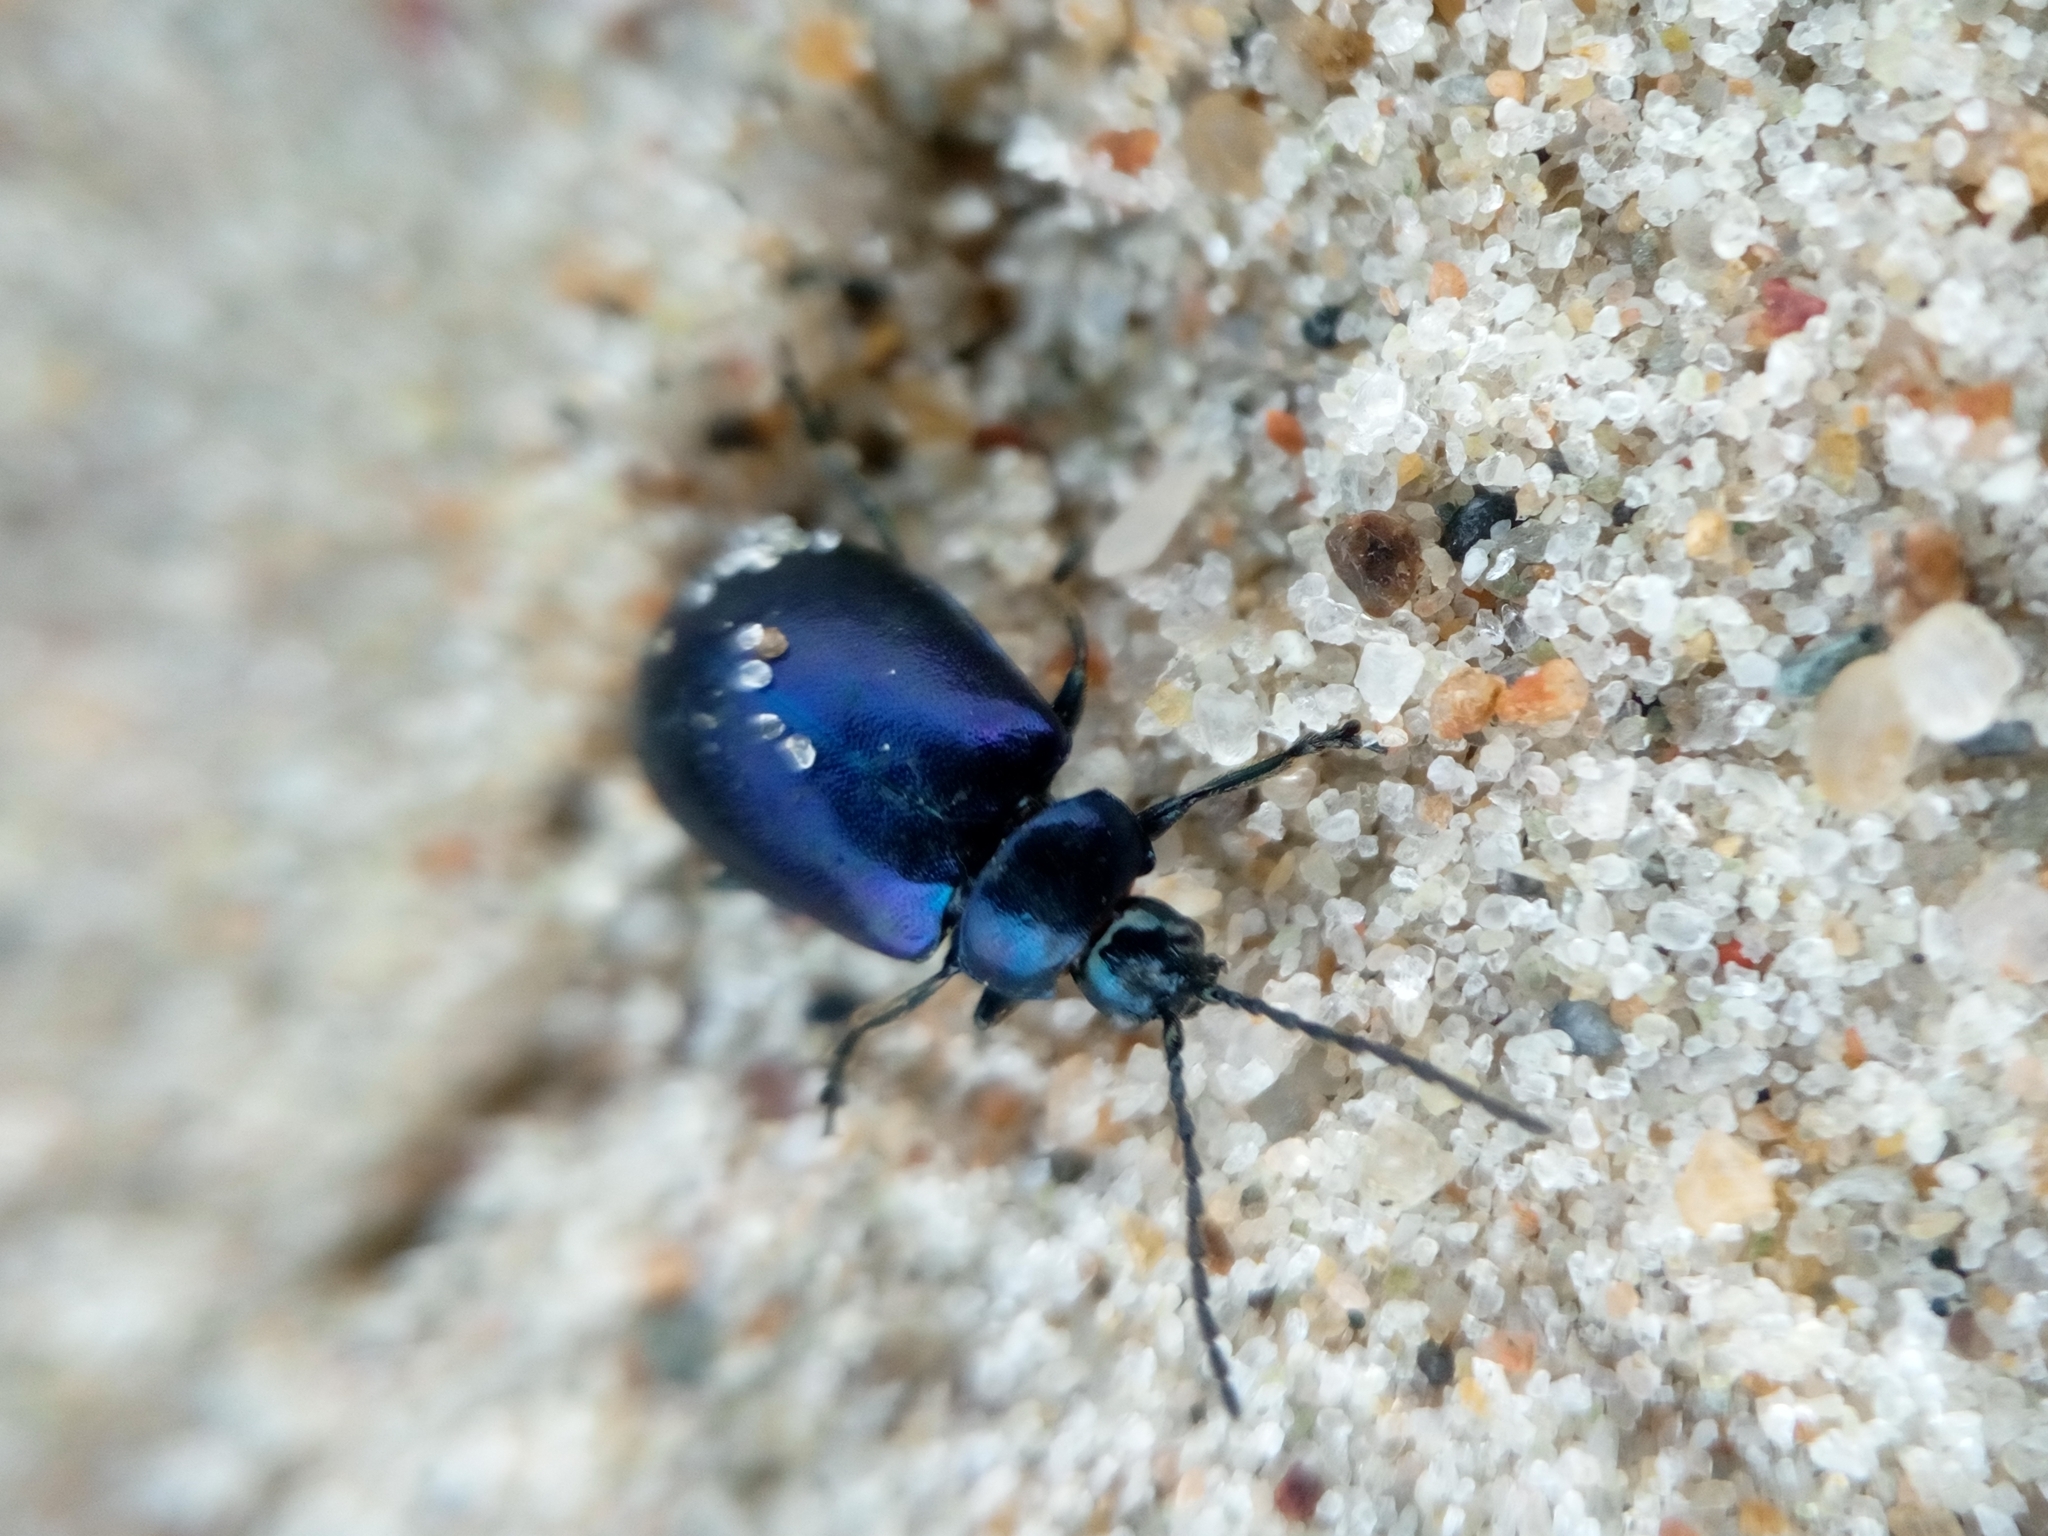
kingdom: Animalia
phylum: Arthropoda
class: Insecta
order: Coleoptera
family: Chrysomelidae
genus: Agelastica
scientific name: Agelastica alni
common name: Alder leaf beetle
